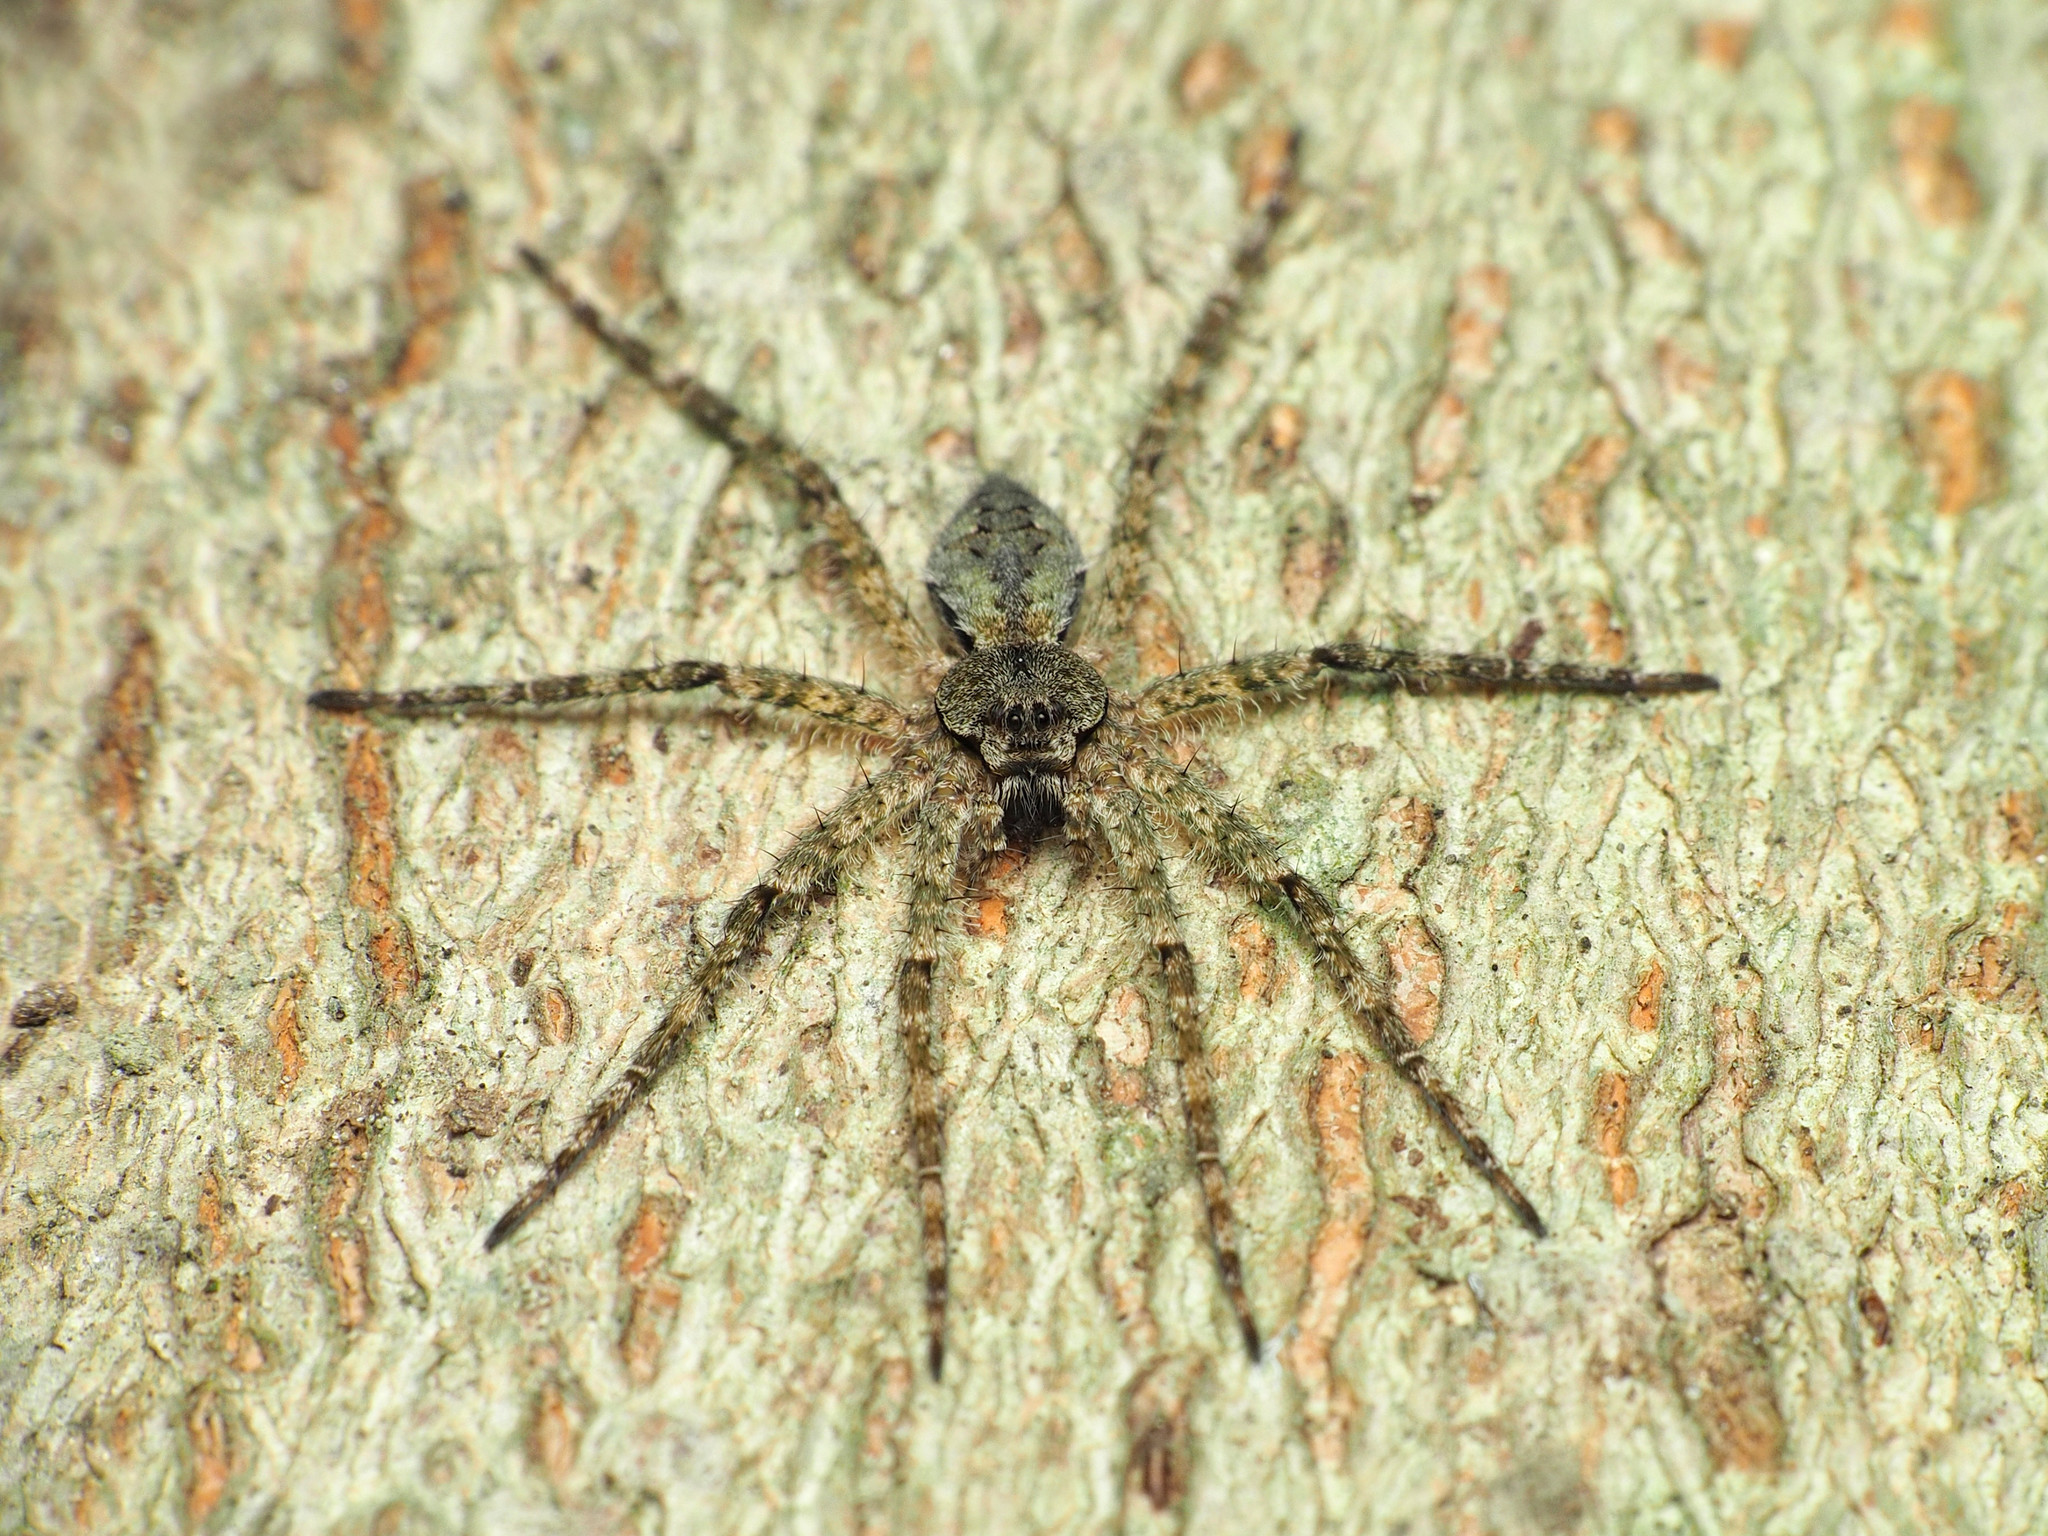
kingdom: Animalia
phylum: Arthropoda
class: Arachnida
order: Araneae
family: Pisauridae
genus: Dolomedes
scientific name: Dolomedes albineus
